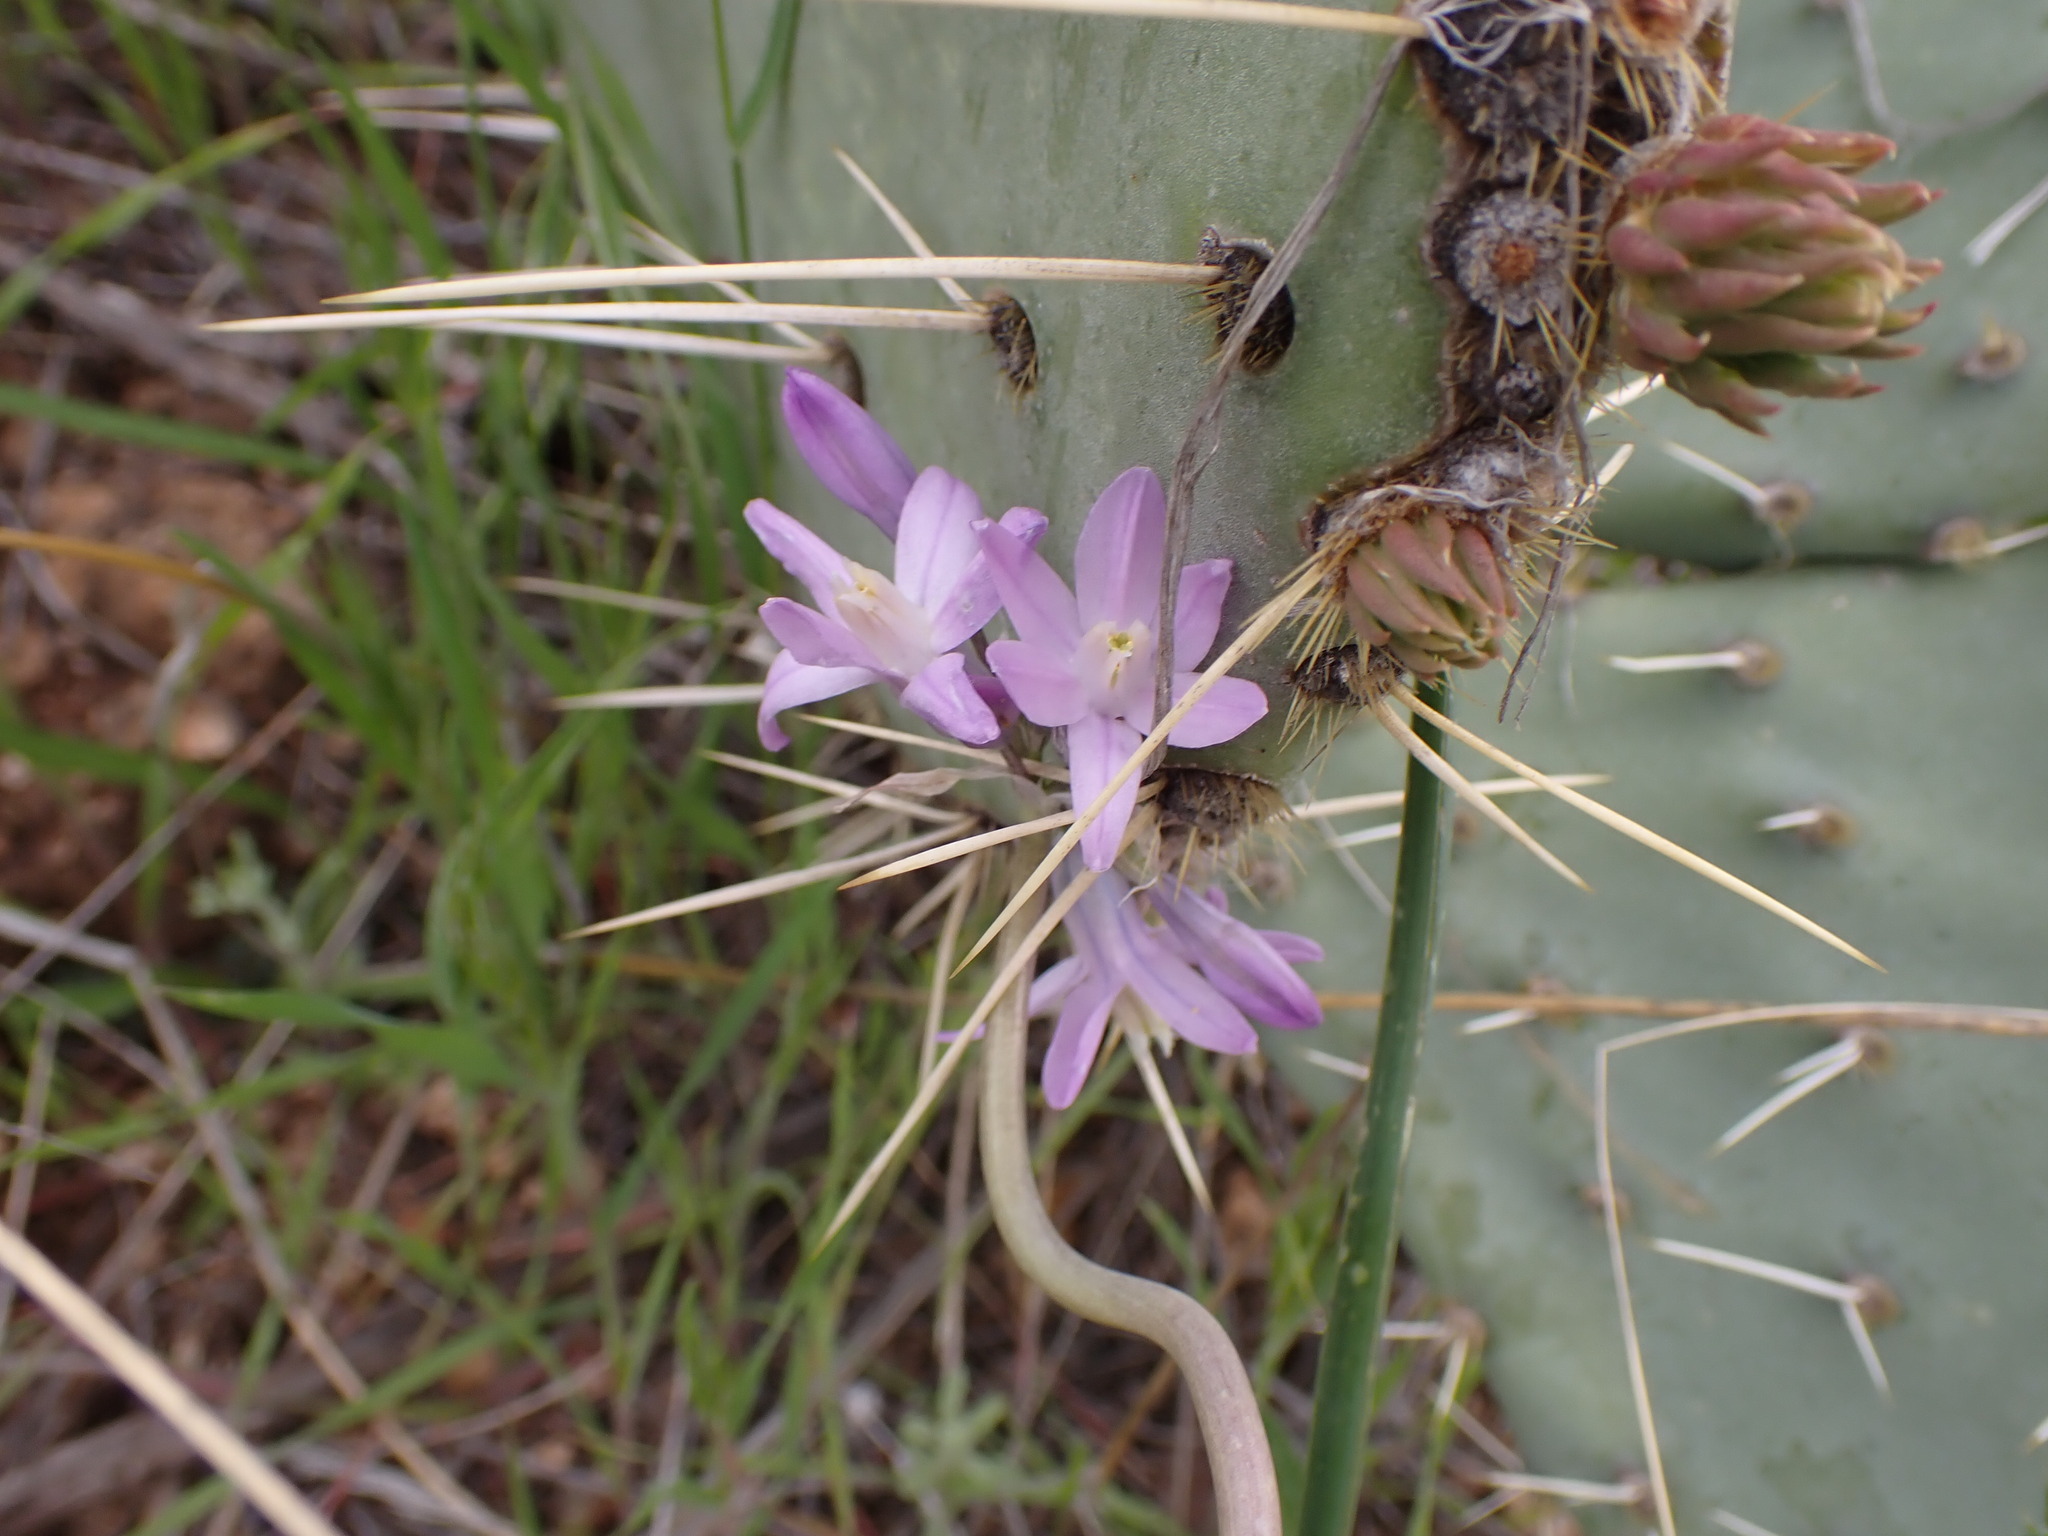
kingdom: Plantae
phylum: Tracheophyta
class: Liliopsida
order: Asparagales
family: Asparagaceae
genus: Dipterostemon
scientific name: Dipterostemon capitatus
